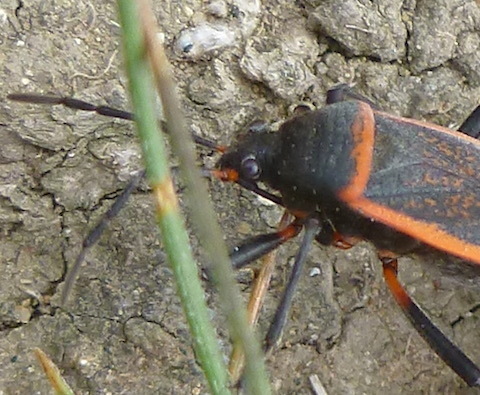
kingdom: Animalia
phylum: Arthropoda
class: Insecta
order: Hemiptera
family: Largidae
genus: Largus
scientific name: Largus californicus
